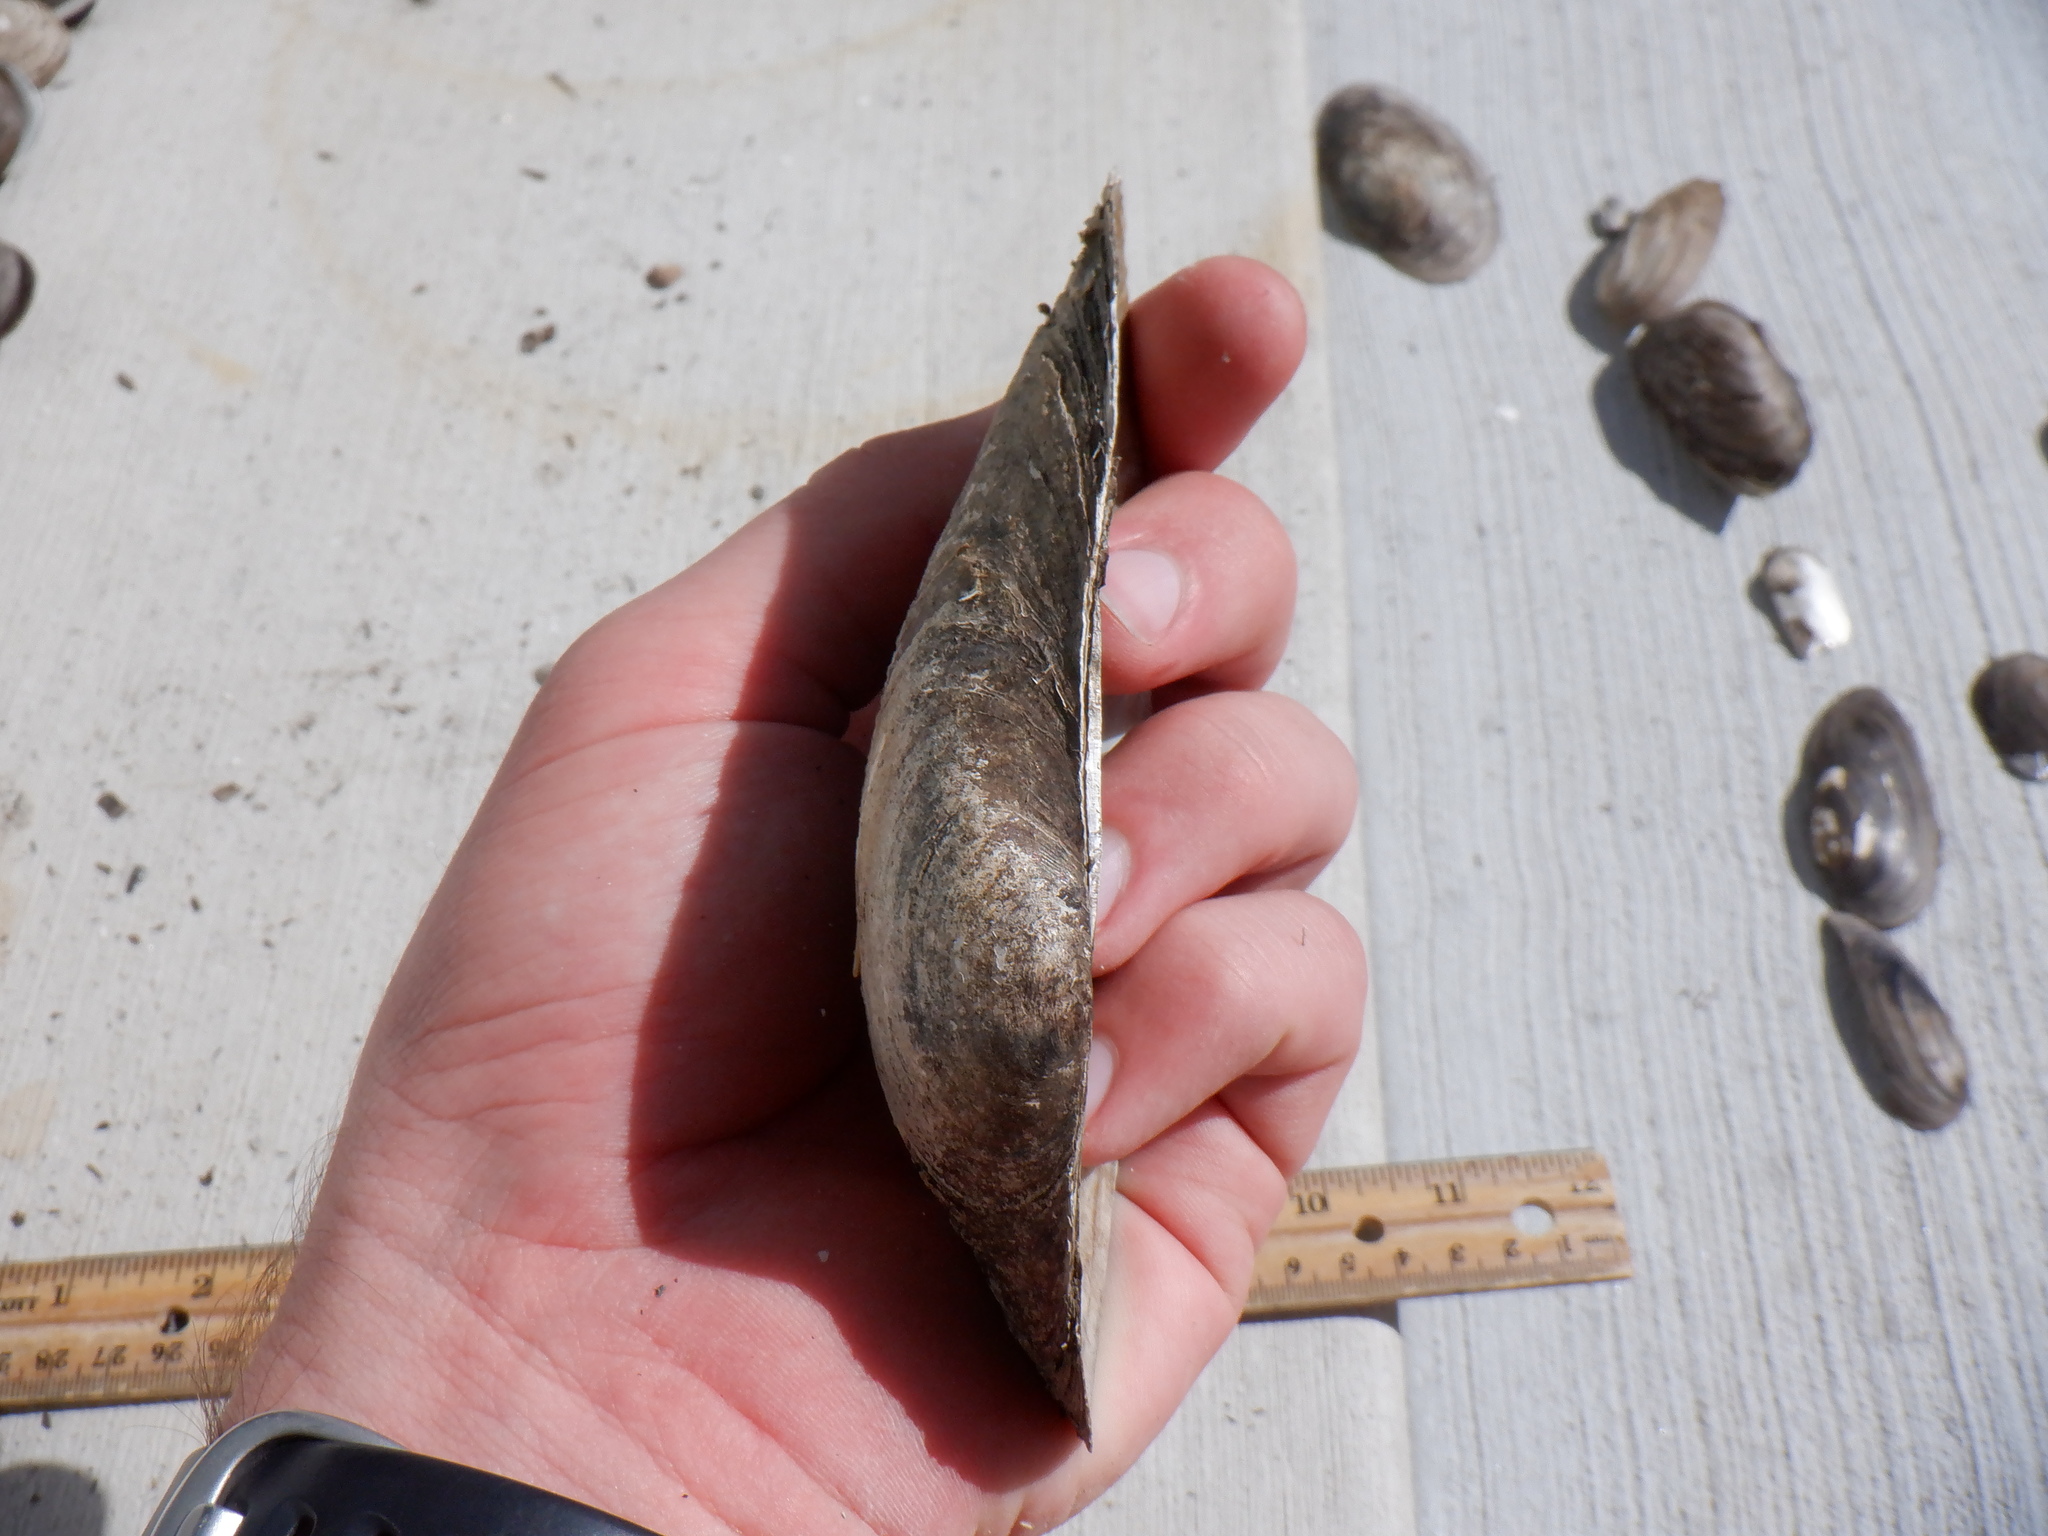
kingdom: Animalia
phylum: Mollusca
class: Bivalvia
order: Unionida
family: Unionidae
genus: Pyganodon
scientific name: Pyganodon grandis
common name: Giant floater
